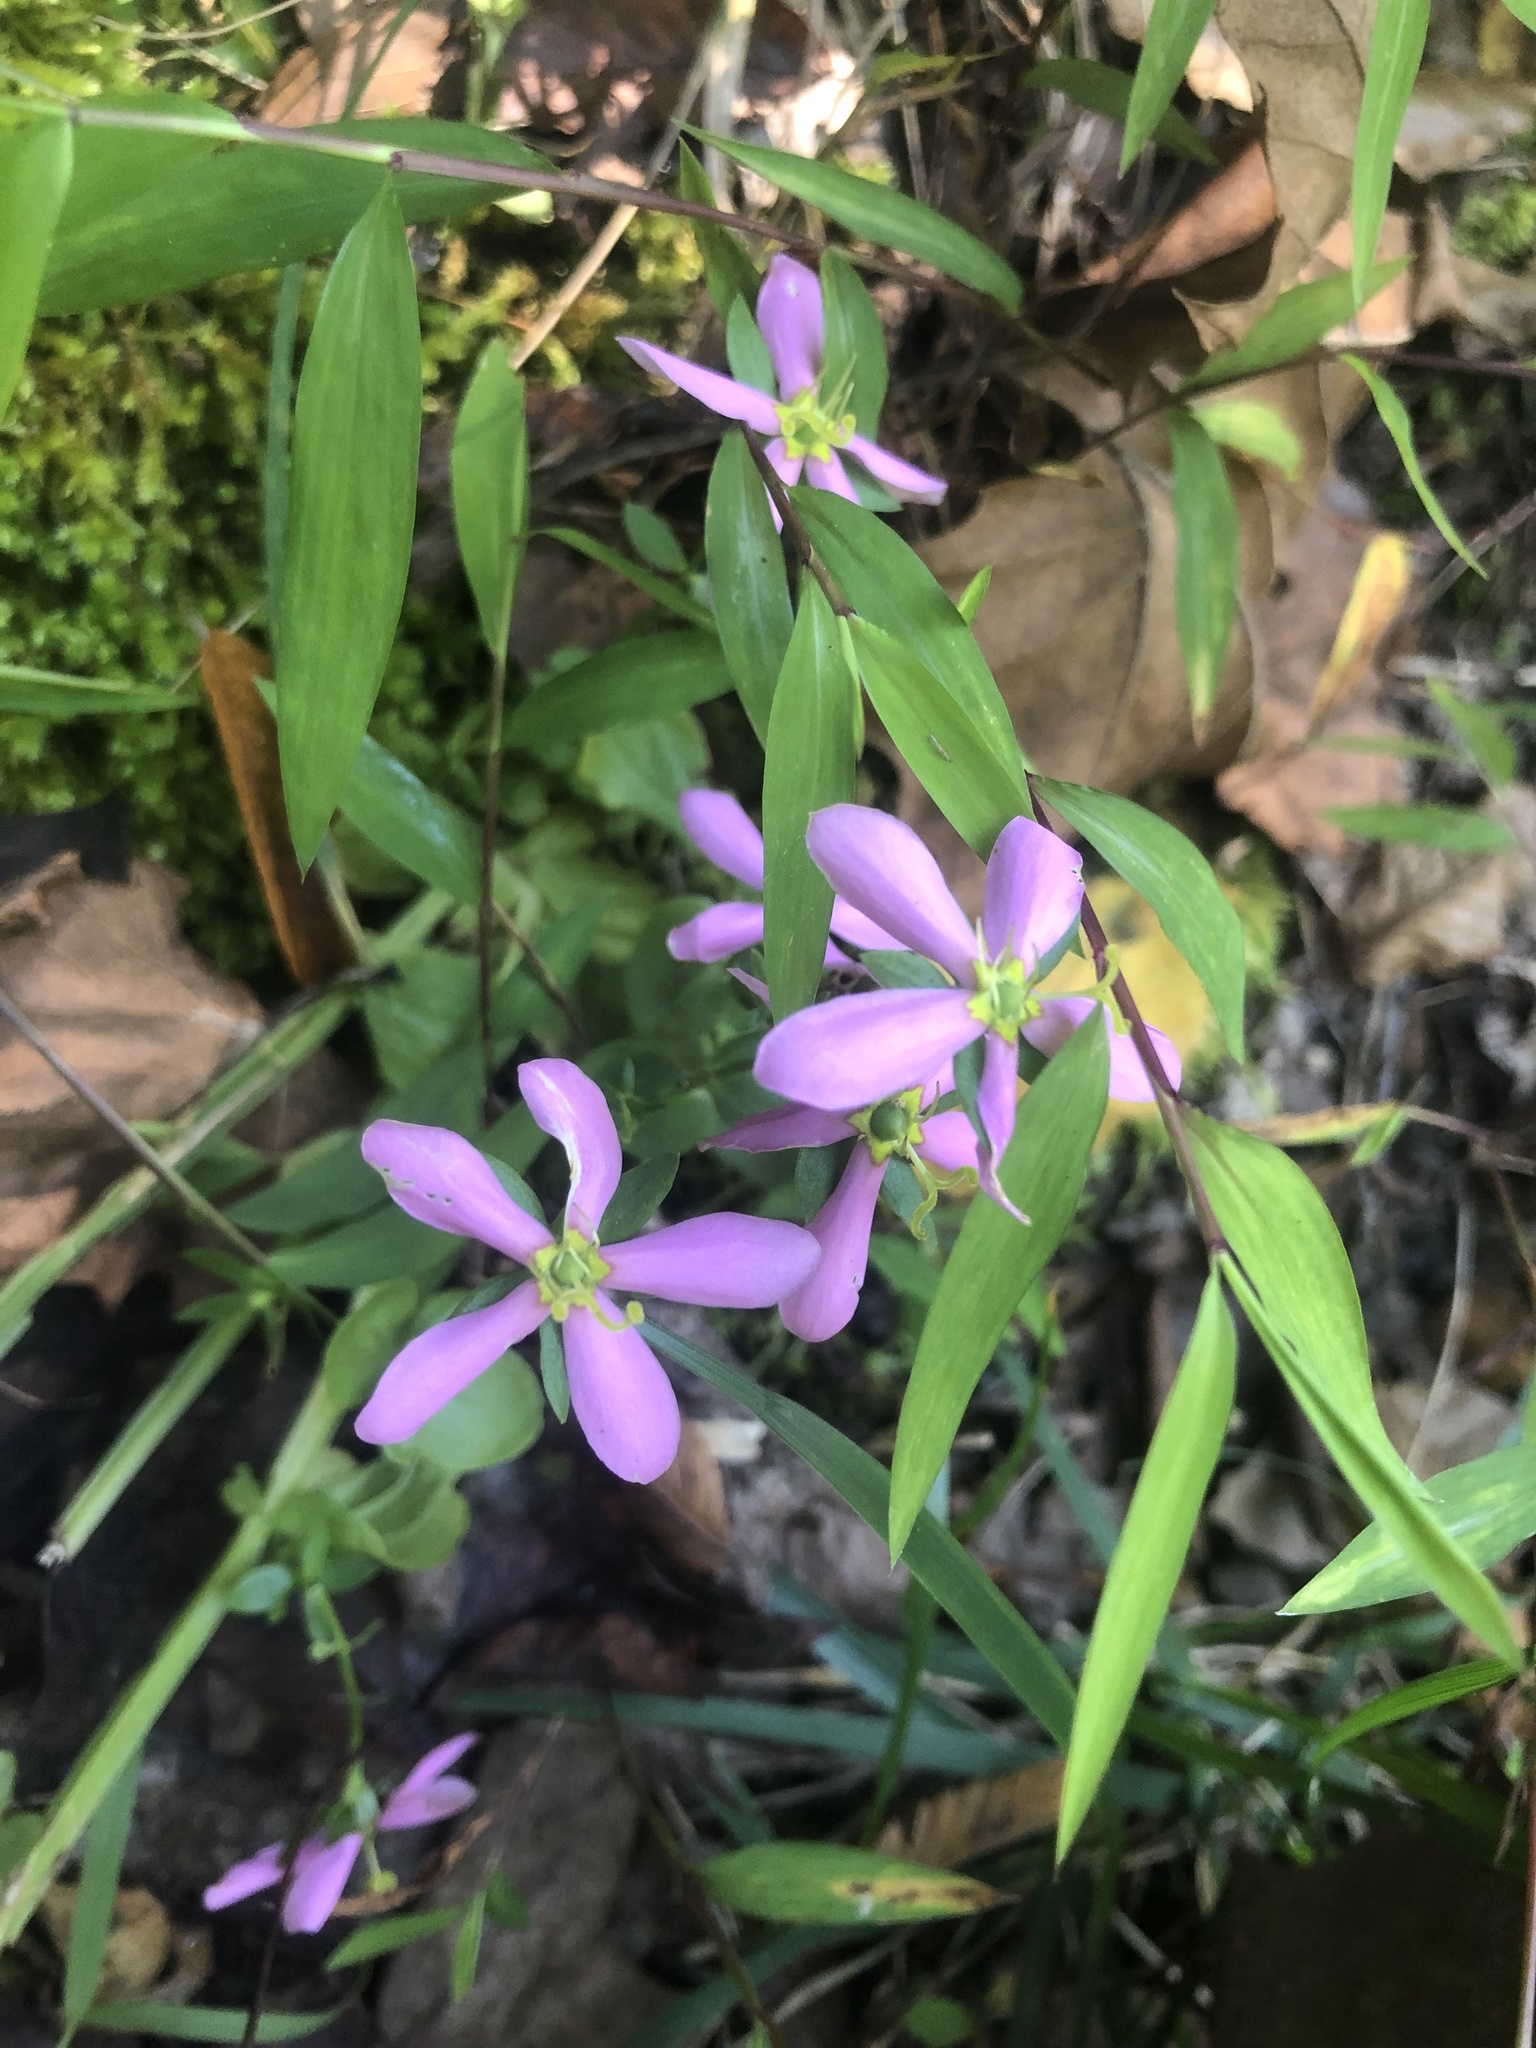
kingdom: Plantae
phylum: Tracheophyta
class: Magnoliopsida
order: Gentianales
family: Gentianaceae
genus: Sabatia
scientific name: Sabatia angularis
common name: Rose-pink
